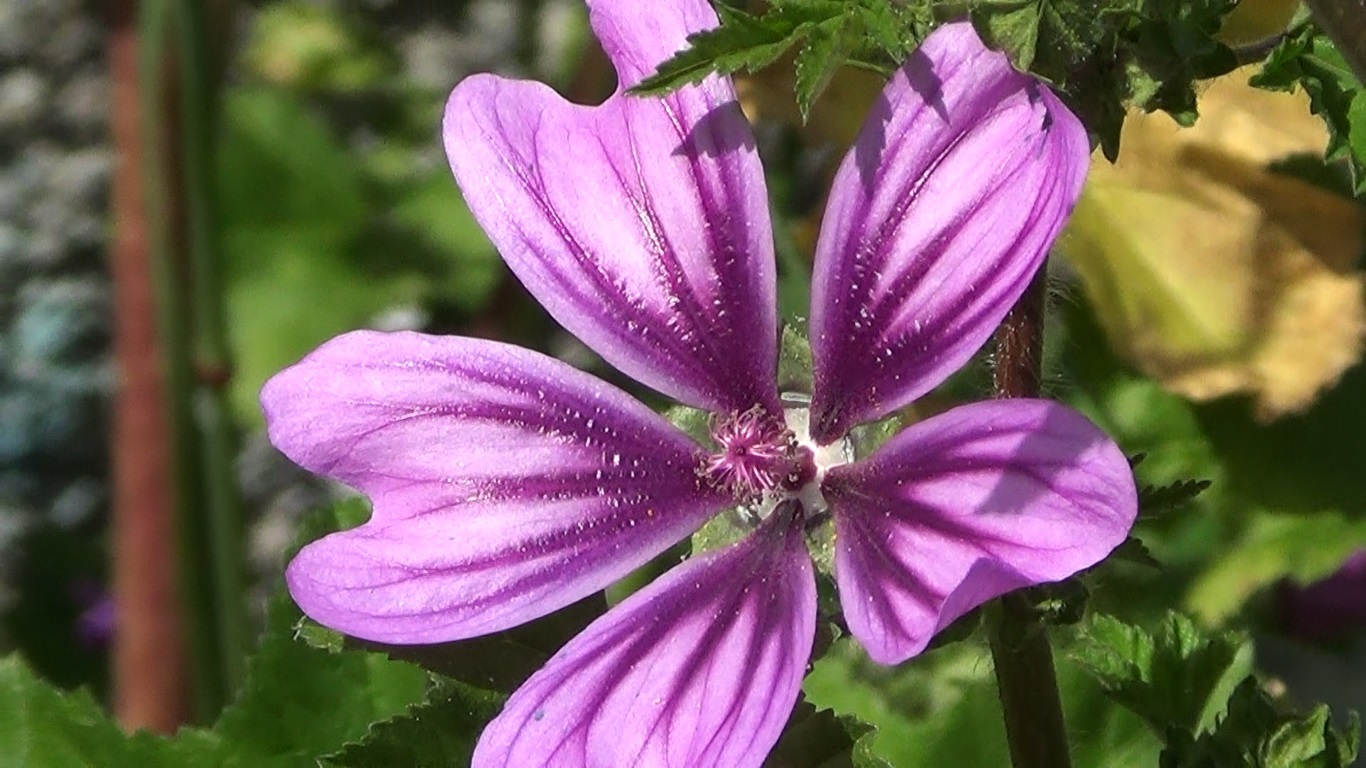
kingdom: Plantae
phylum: Tracheophyta
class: Magnoliopsida
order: Malvales
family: Malvaceae
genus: Malva
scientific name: Malva sylvestris
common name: Common mallow
